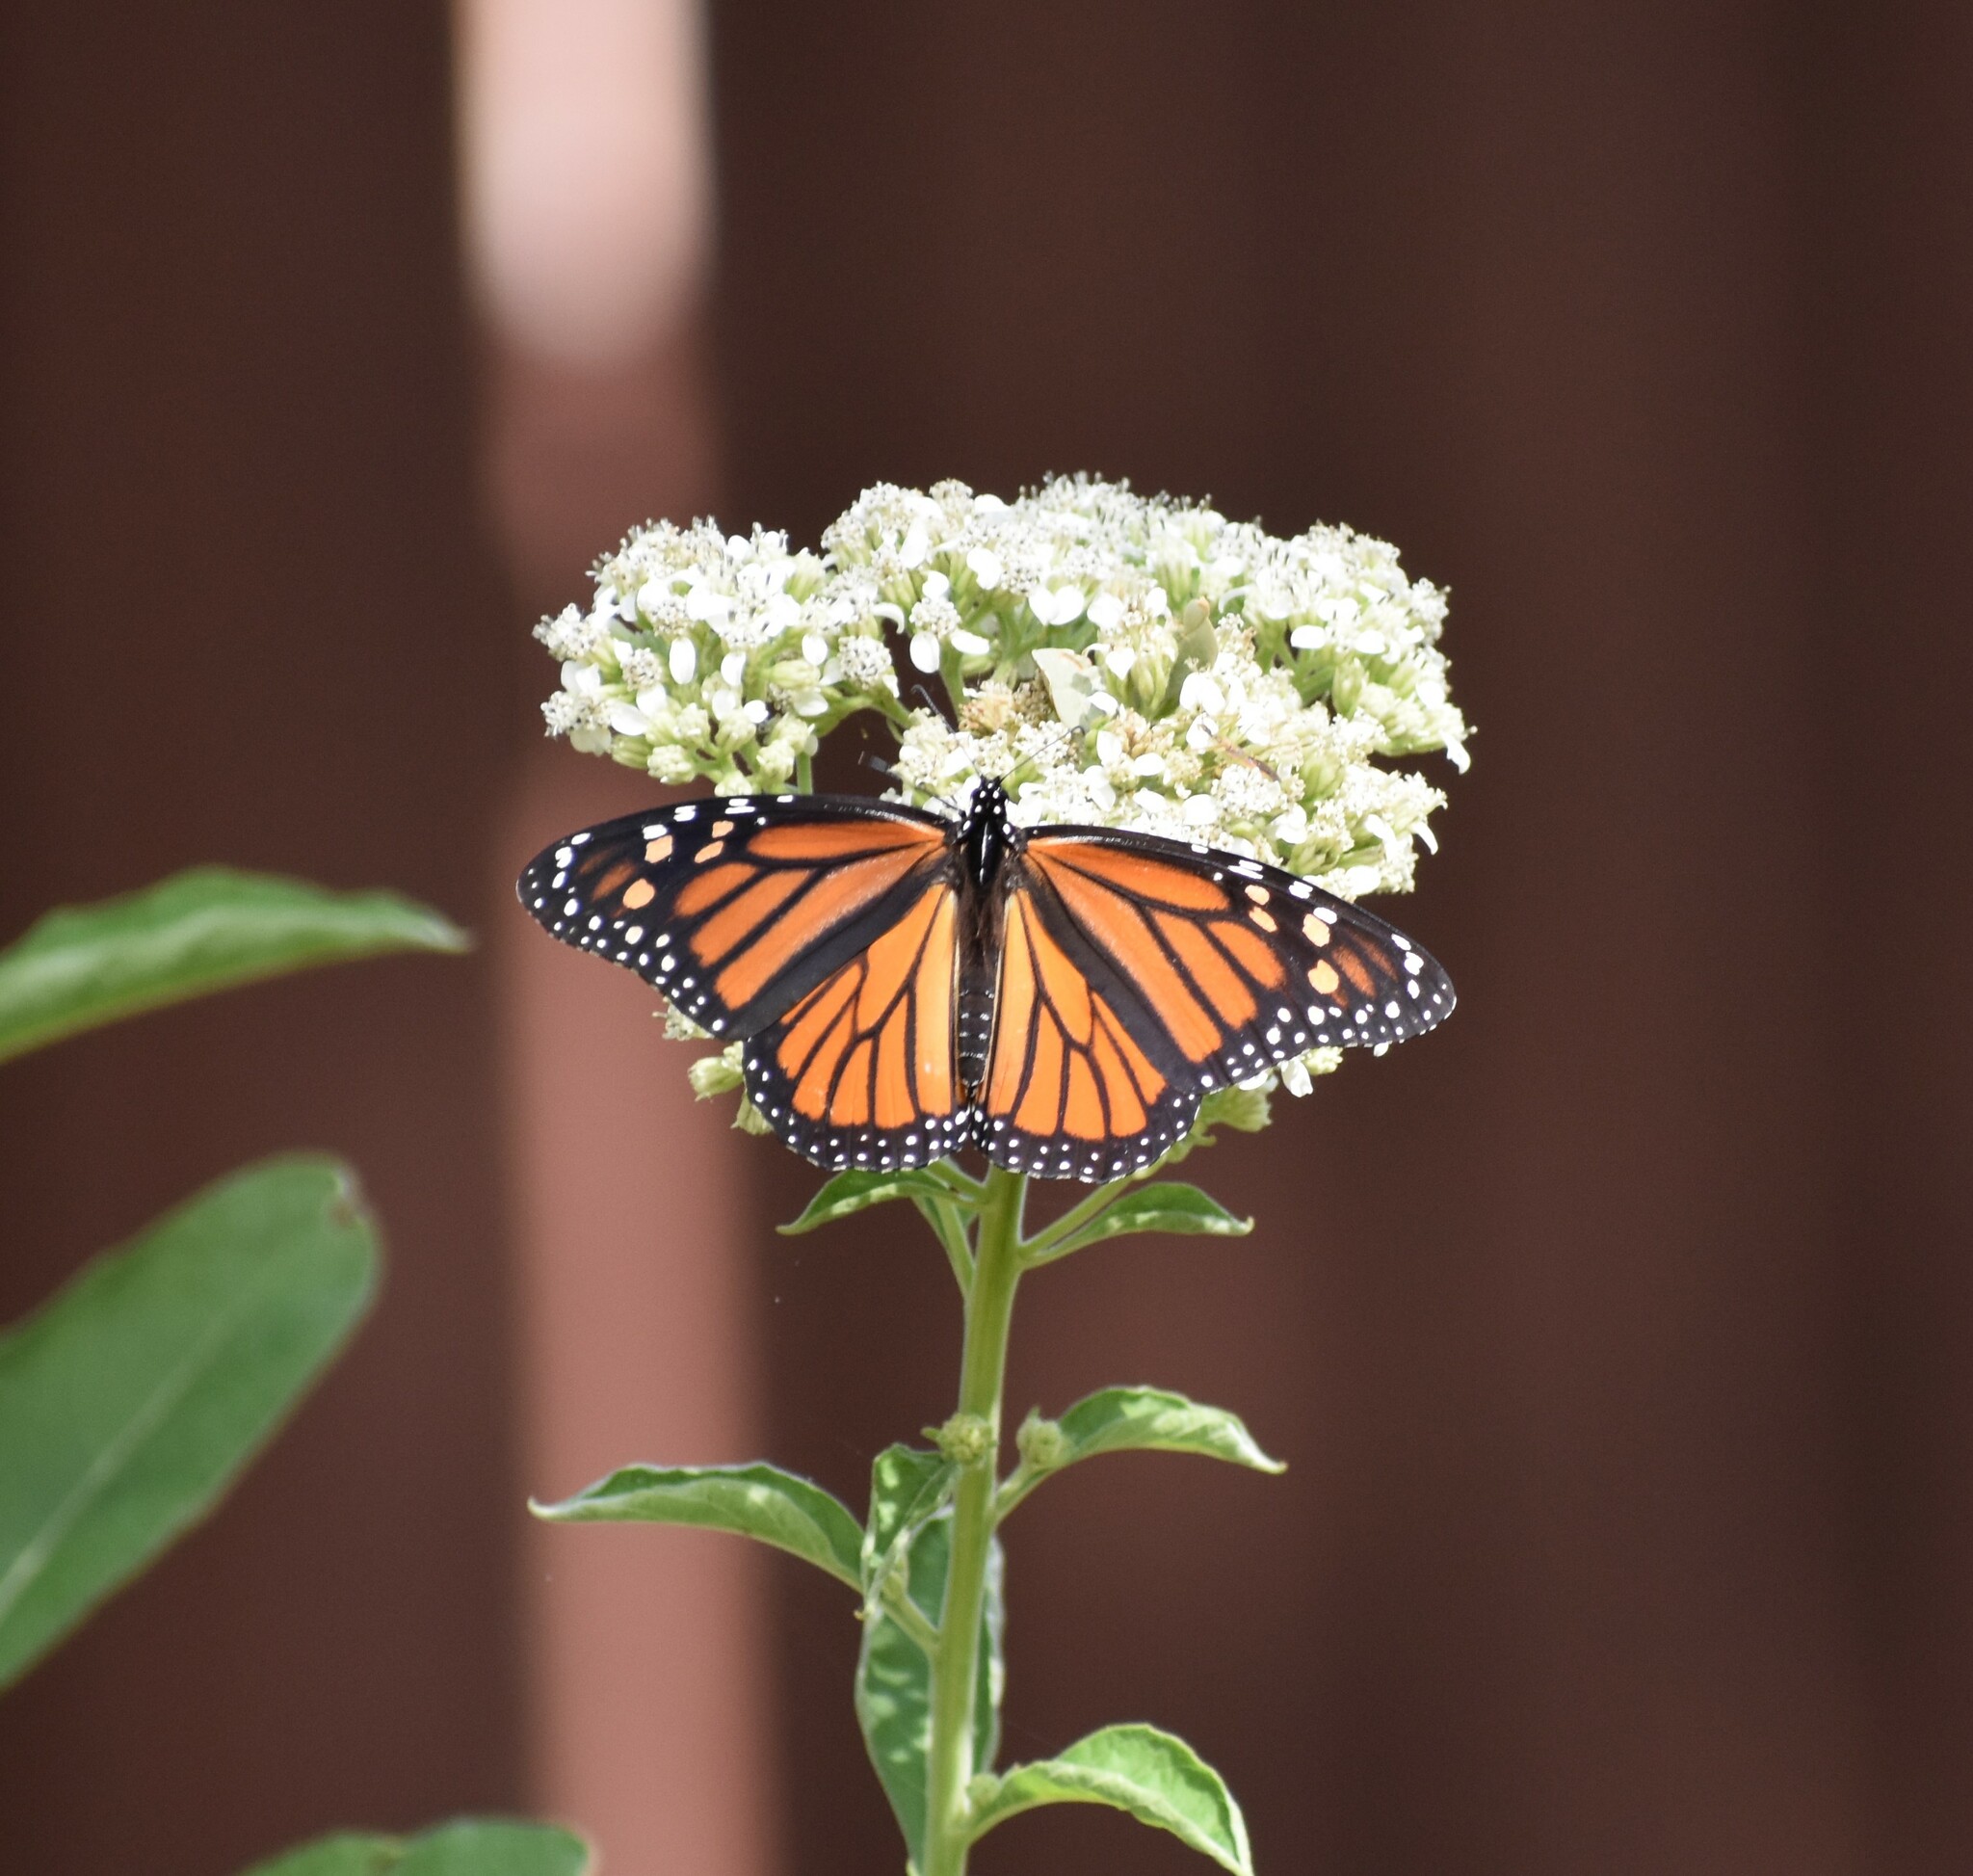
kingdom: Animalia
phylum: Arthropoda
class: Insecta
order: Lepidoptera
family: Nymphalidae
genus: Danaus
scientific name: Danaus plexippus
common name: Monarch
